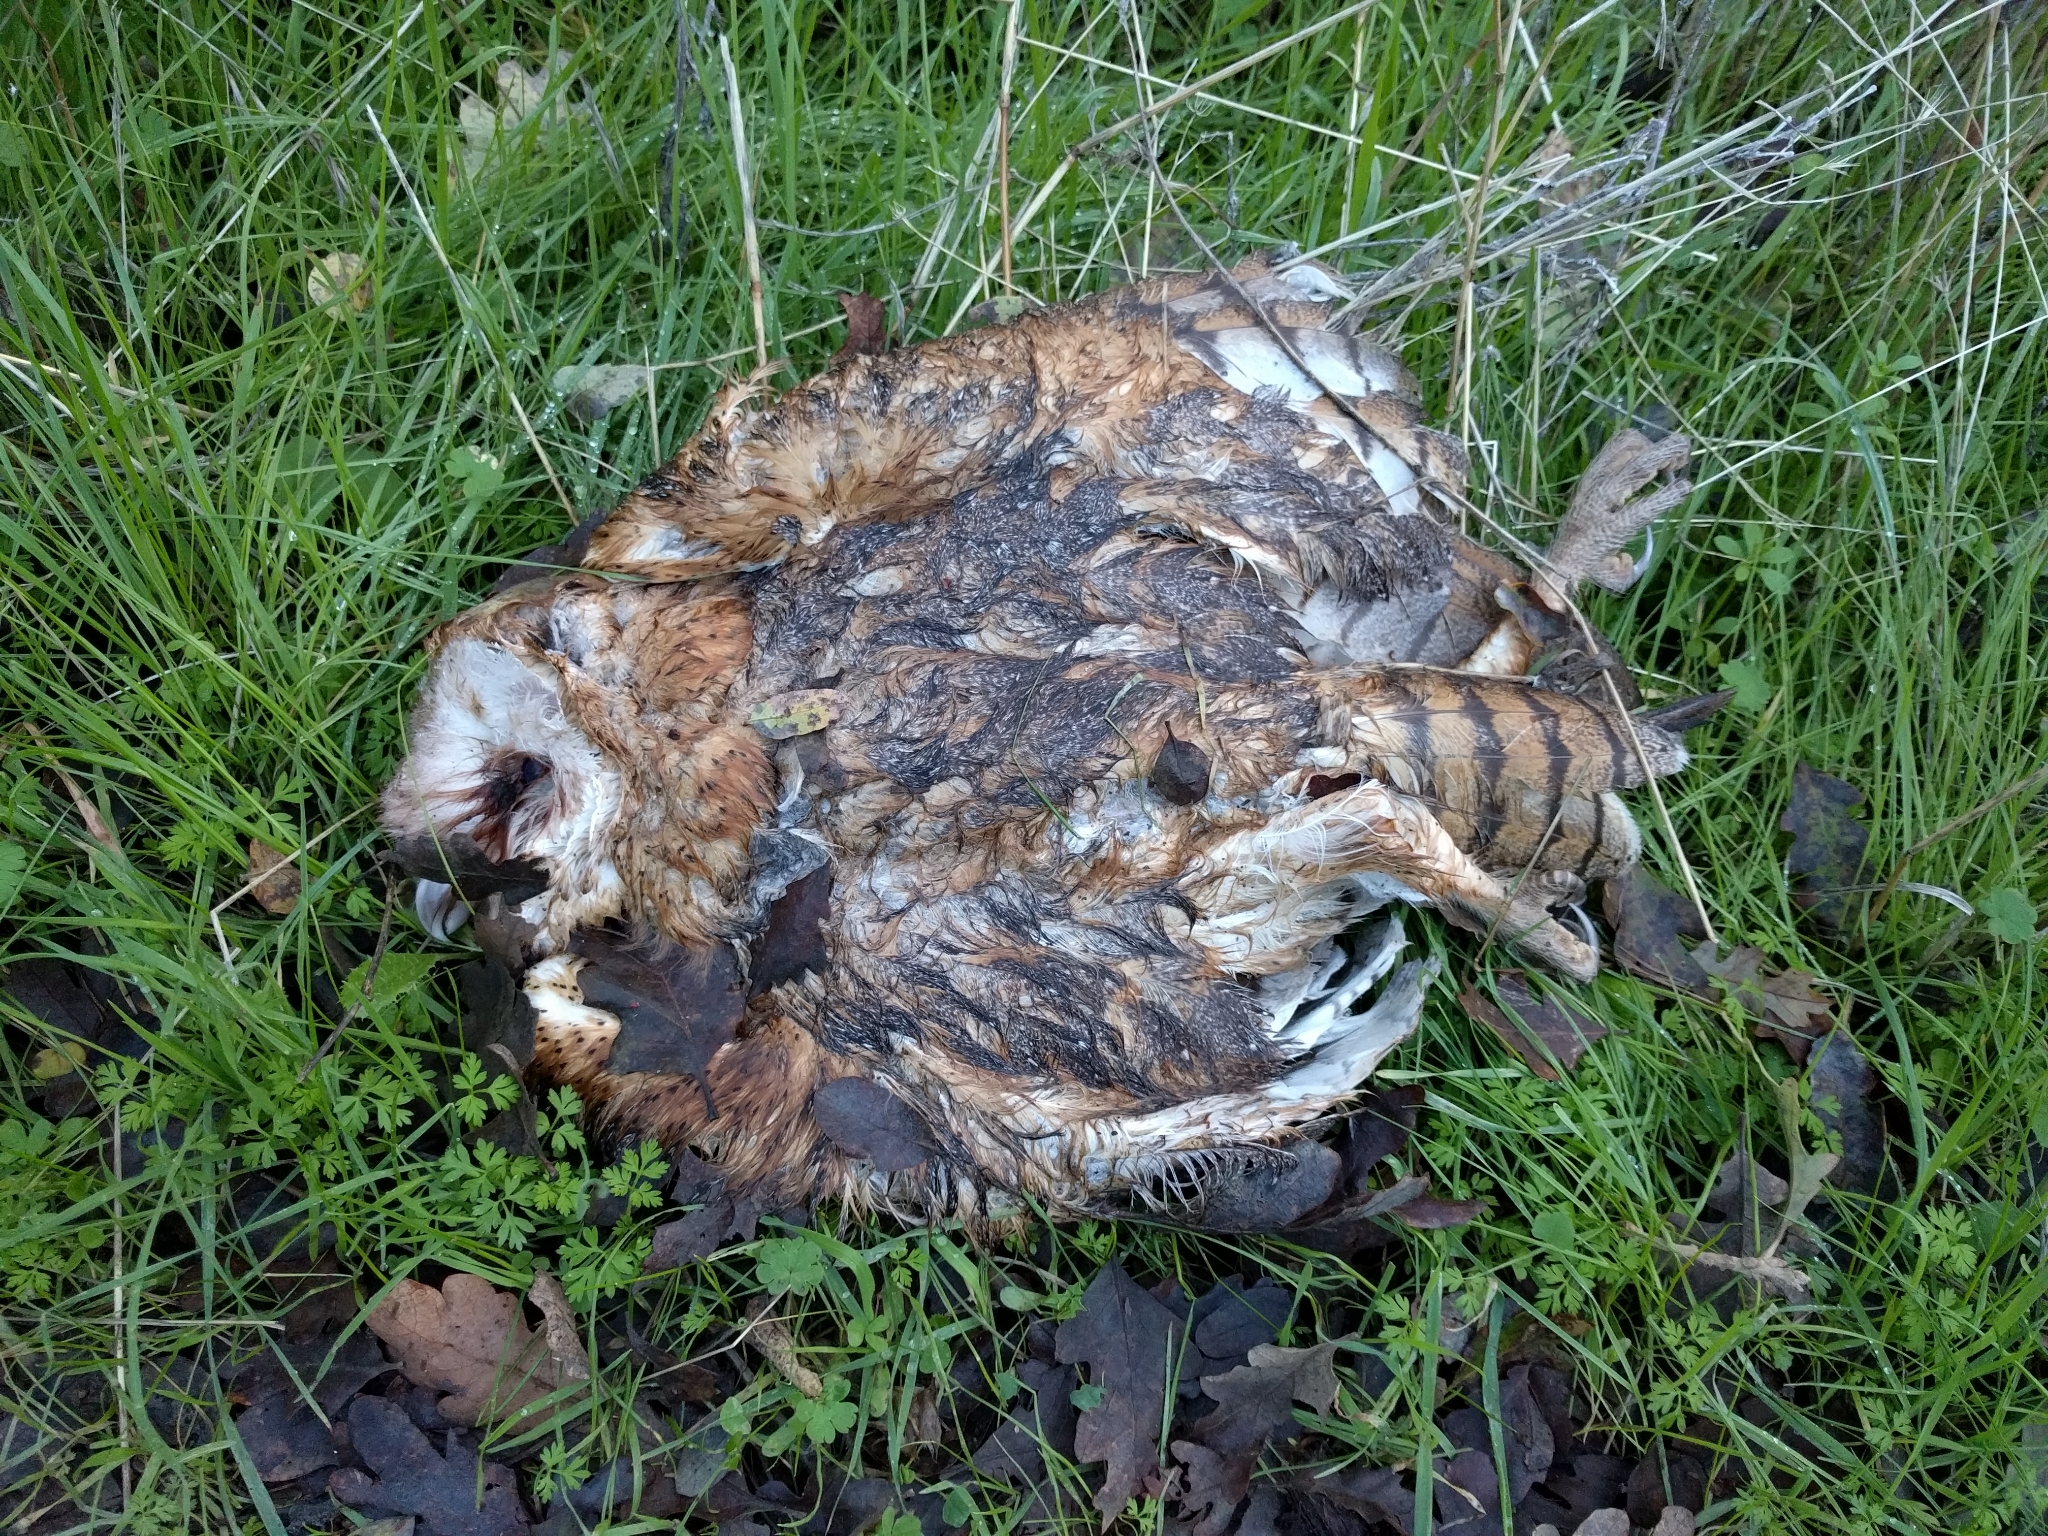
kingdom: Animalia
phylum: Chordata
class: Aves
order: Strigiformes
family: Tytonidae
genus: Tyto
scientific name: Tyto alba
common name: Barn owl
